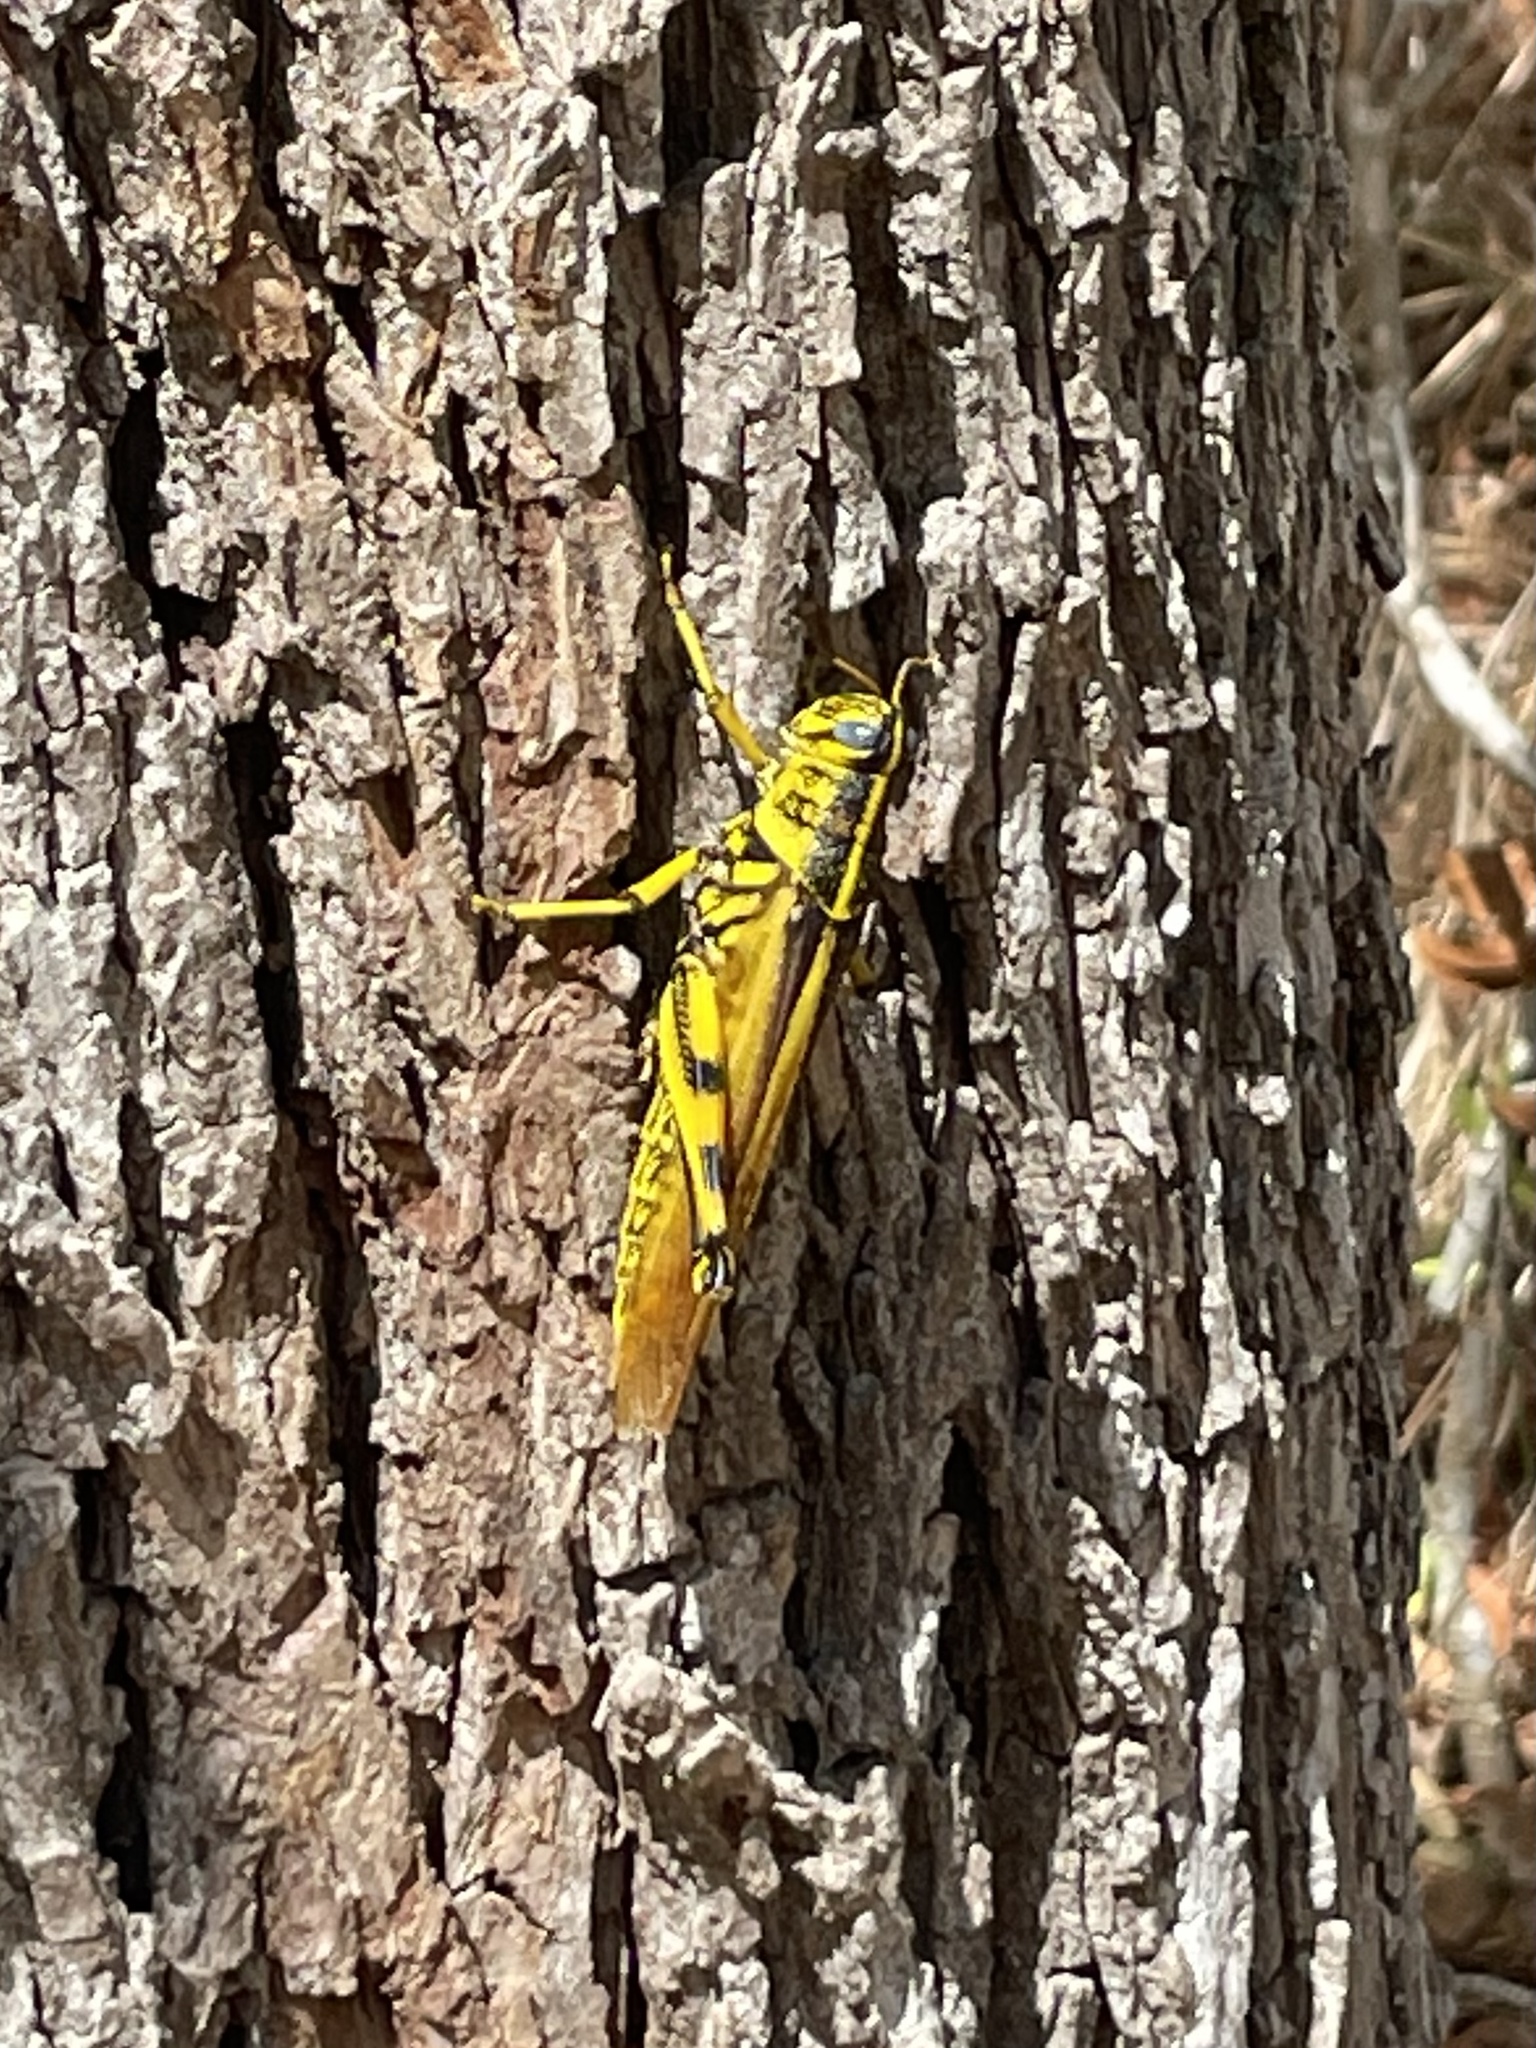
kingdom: Animalia
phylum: Arthropoda
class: Insecta
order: Orthoptera
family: Acrididae
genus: Schistocerca
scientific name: Schistocerca lineata
